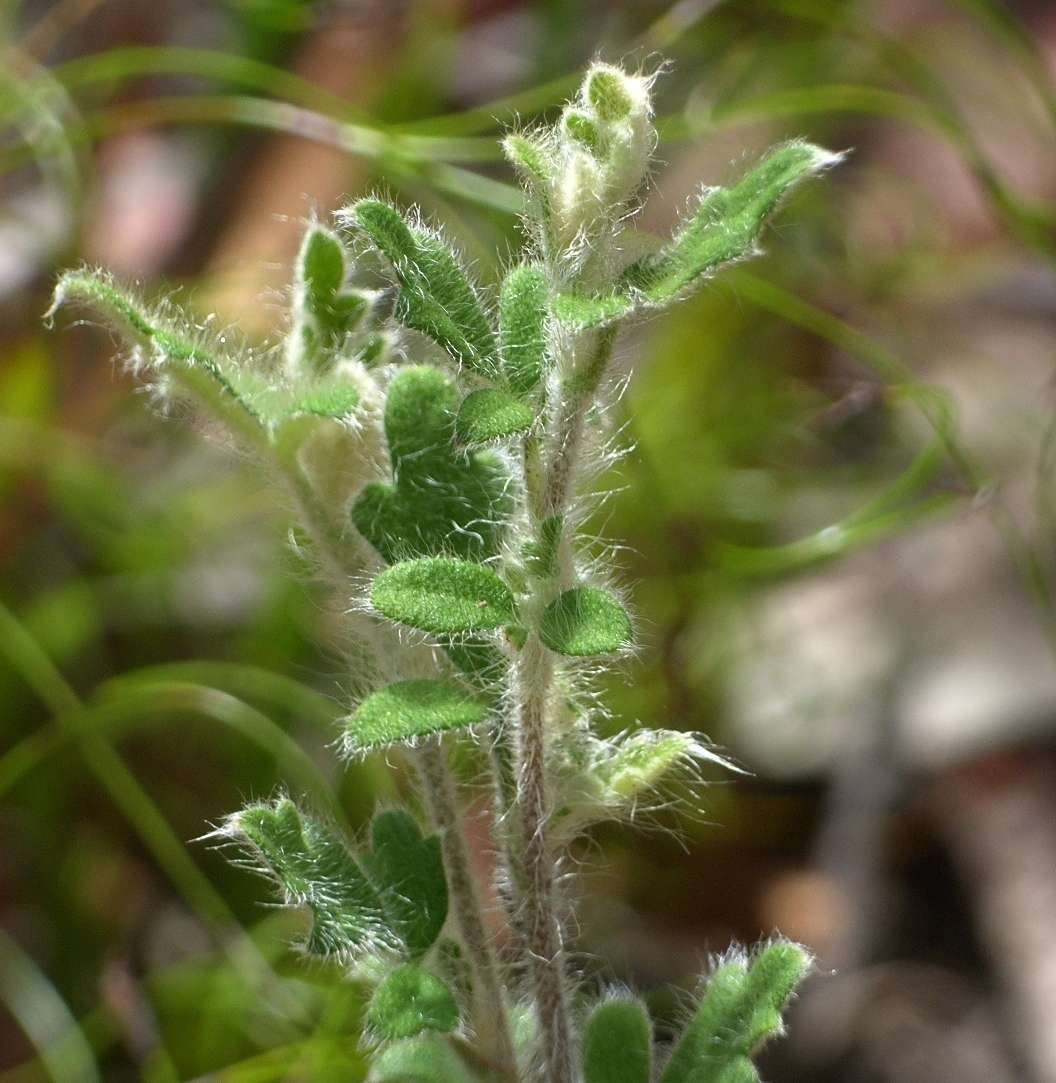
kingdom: Plantae
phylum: Tracheophyta
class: Magnoliopsida
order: Apiales
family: Apiaceae
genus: Xanthosia
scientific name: Xanthosia pilosa
